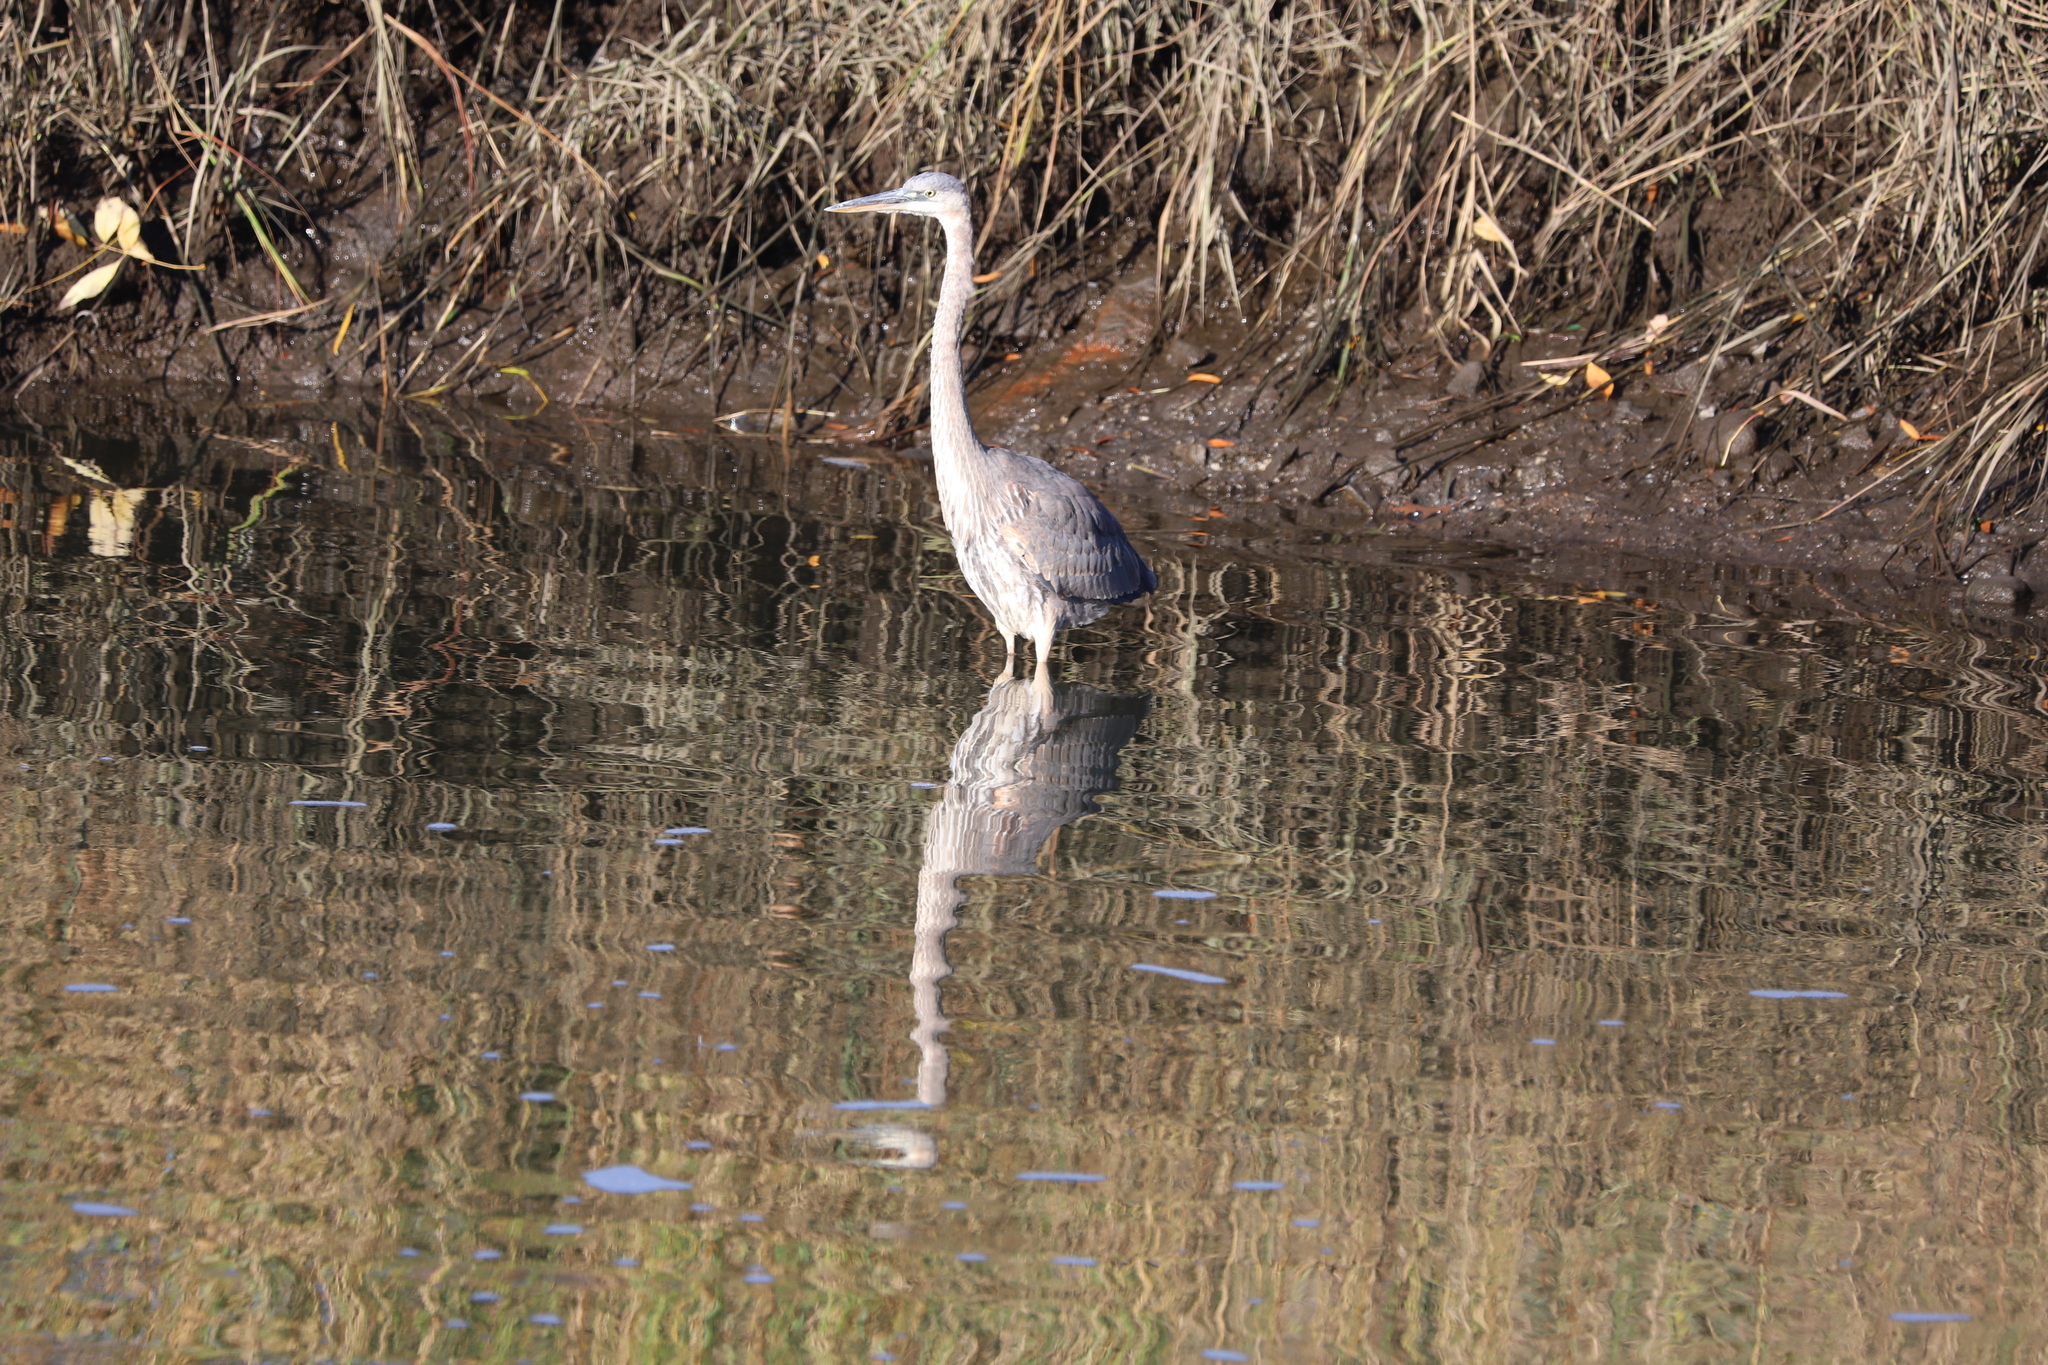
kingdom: Animalia
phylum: Chordata
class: Aves
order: Pelecaniformes
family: Ardeidae
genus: Ardea
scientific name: Ardea herodias
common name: Great blue heron
